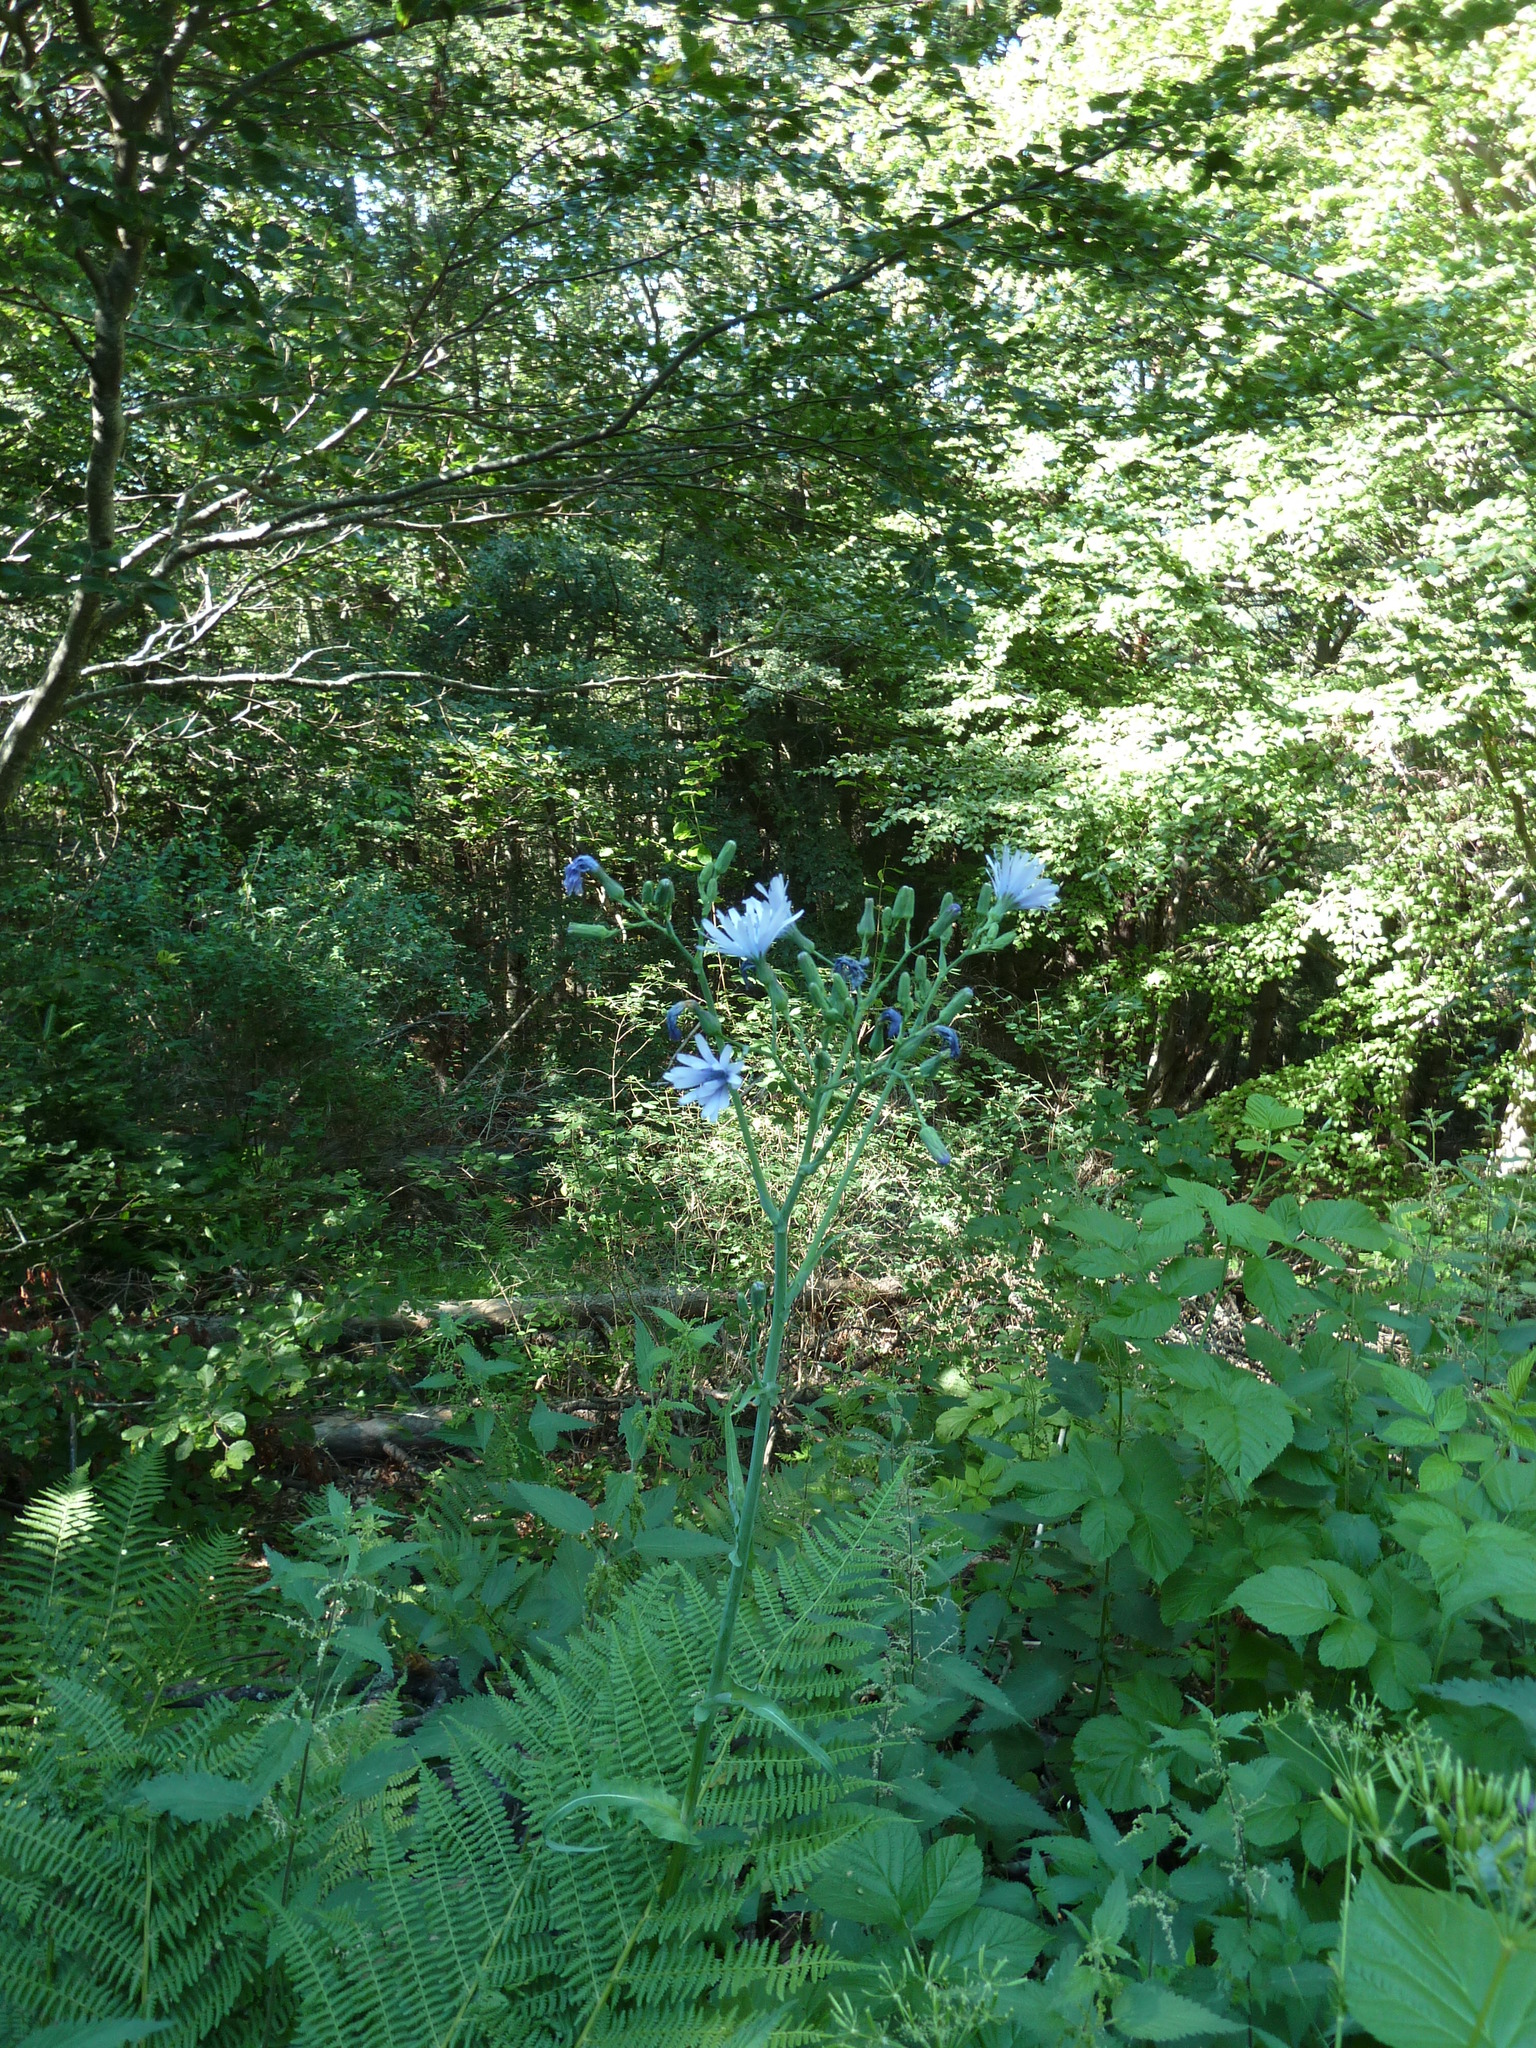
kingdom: Plantae
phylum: Tracheophyta
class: Magnoliopsida
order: Asterales
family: Asteraceae
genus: Lactuca
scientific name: Lactuca plumieri
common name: Hairless blue-sow-thistle
